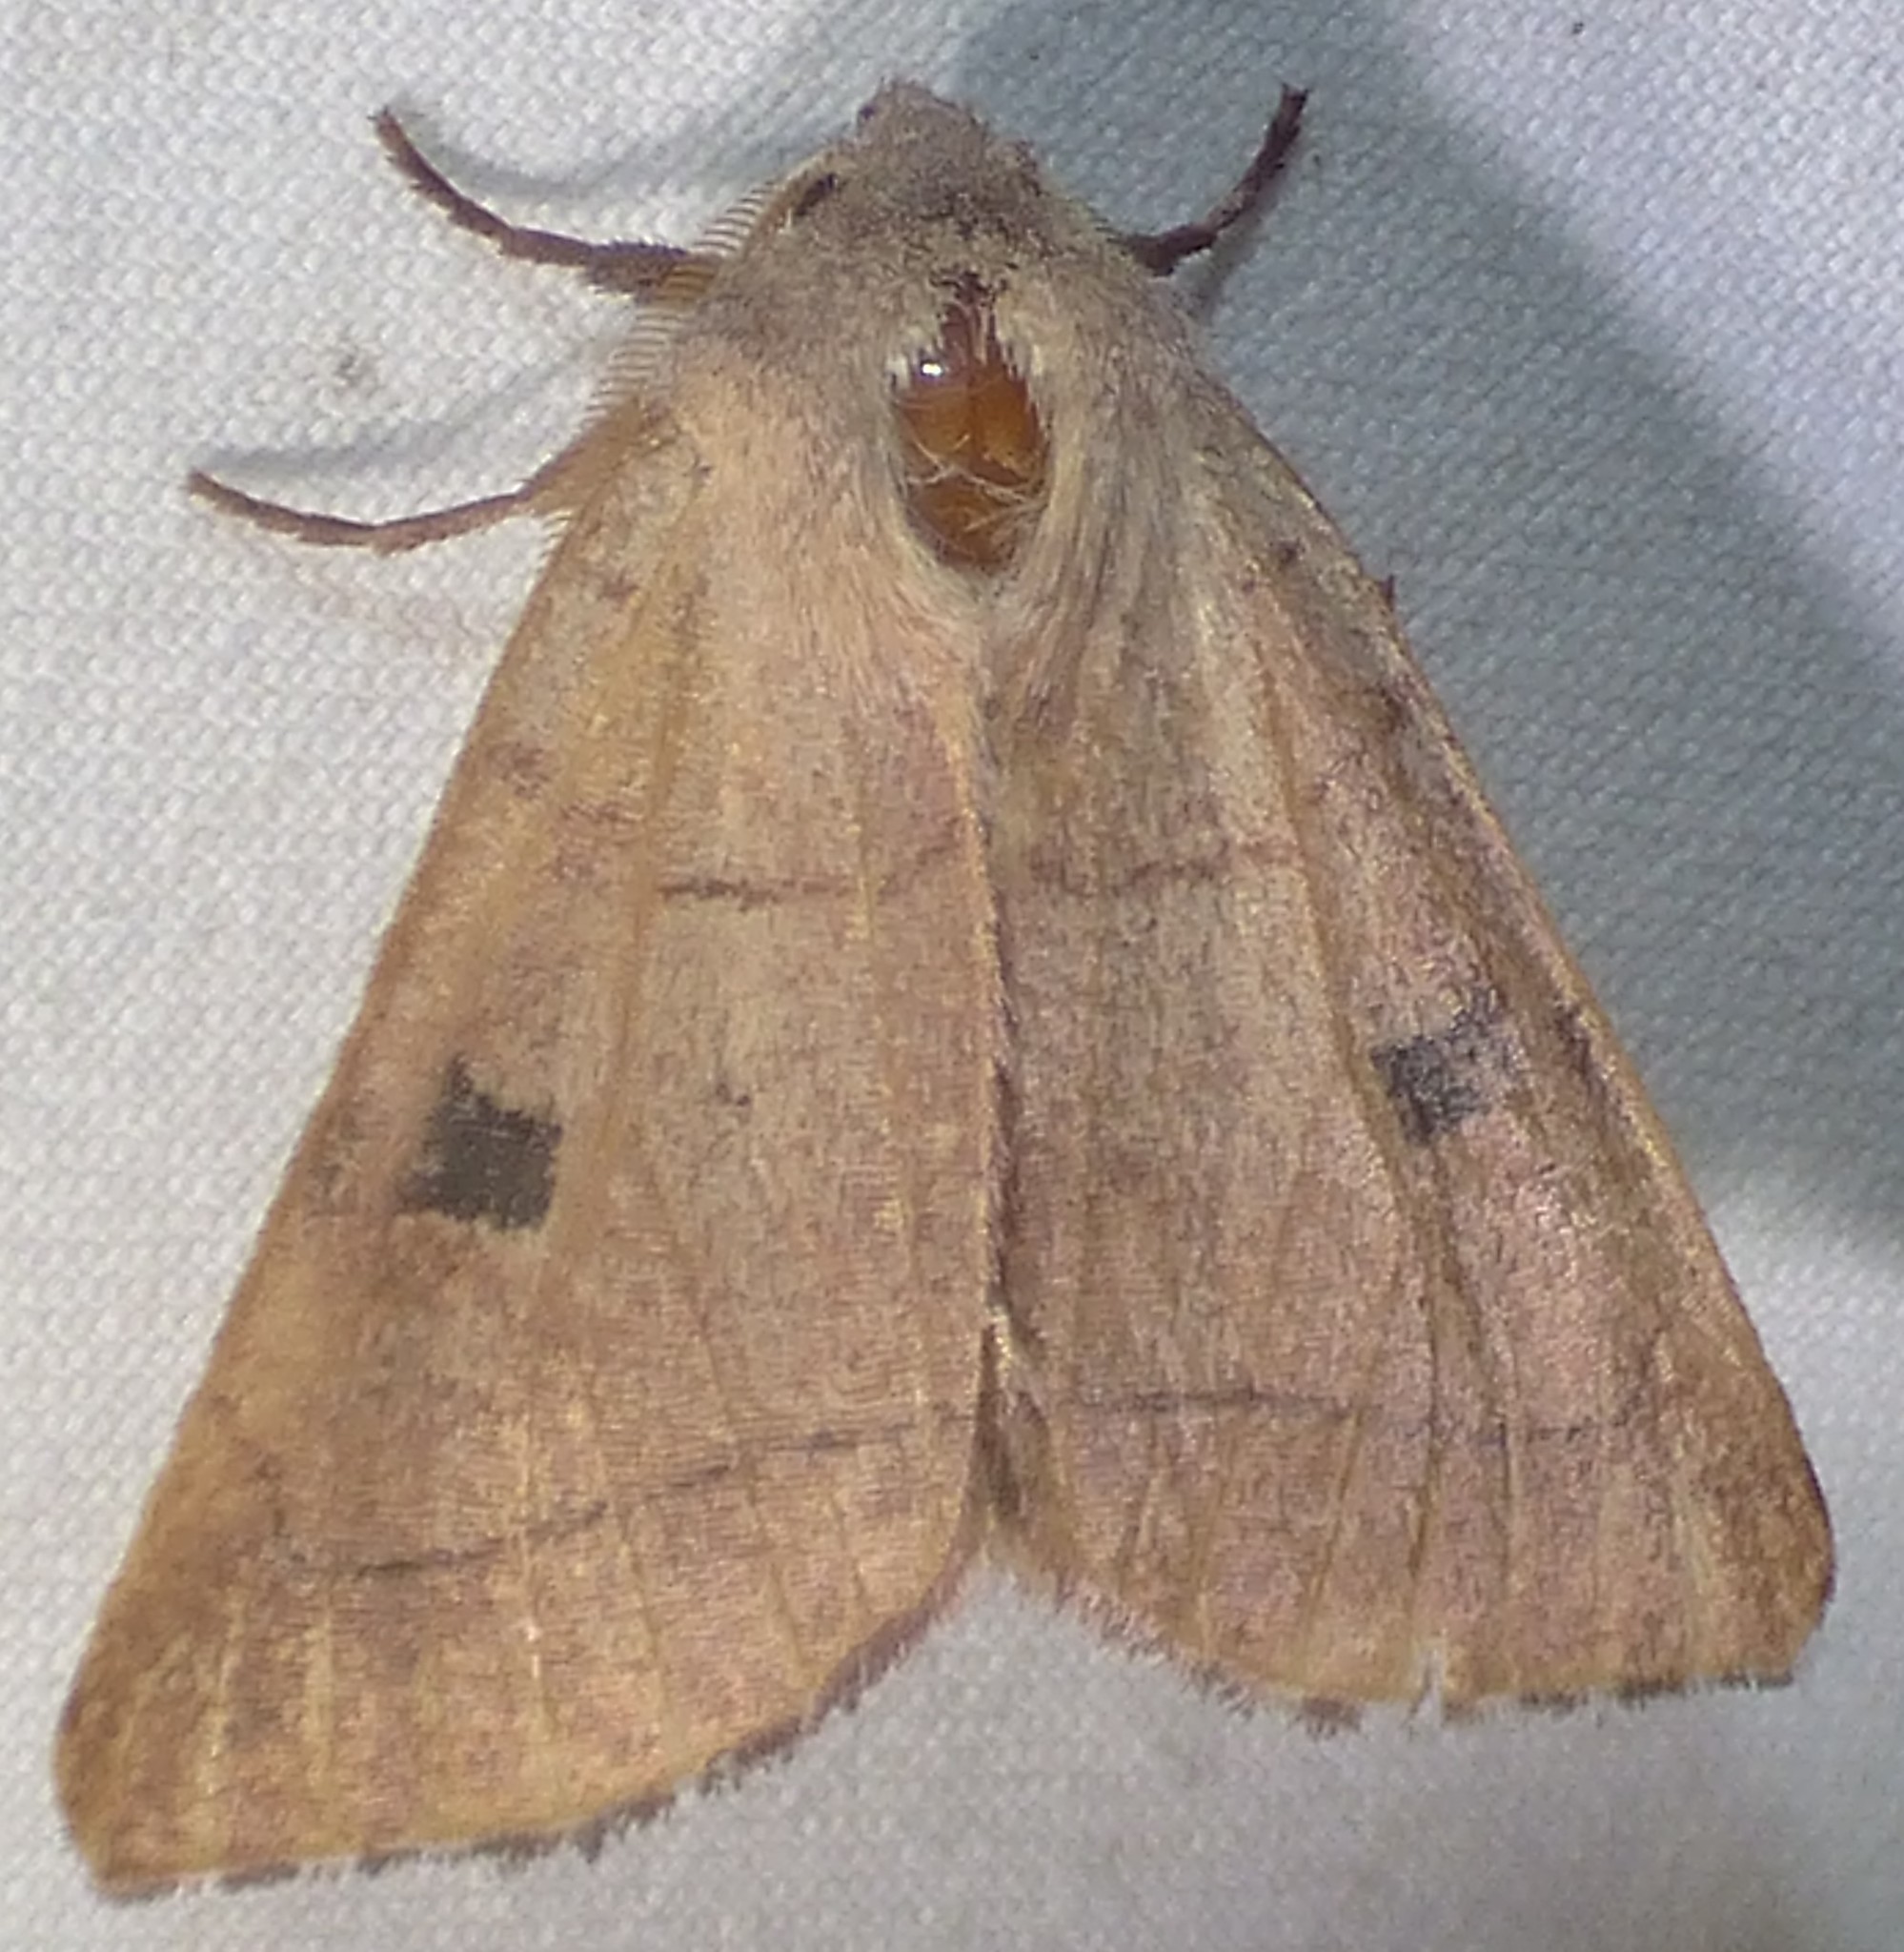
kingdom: Animalia
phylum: Arthropoda
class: Insecta
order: Lepidoptera
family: Noctuidae
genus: Choephora
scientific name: Choephora fungorum
